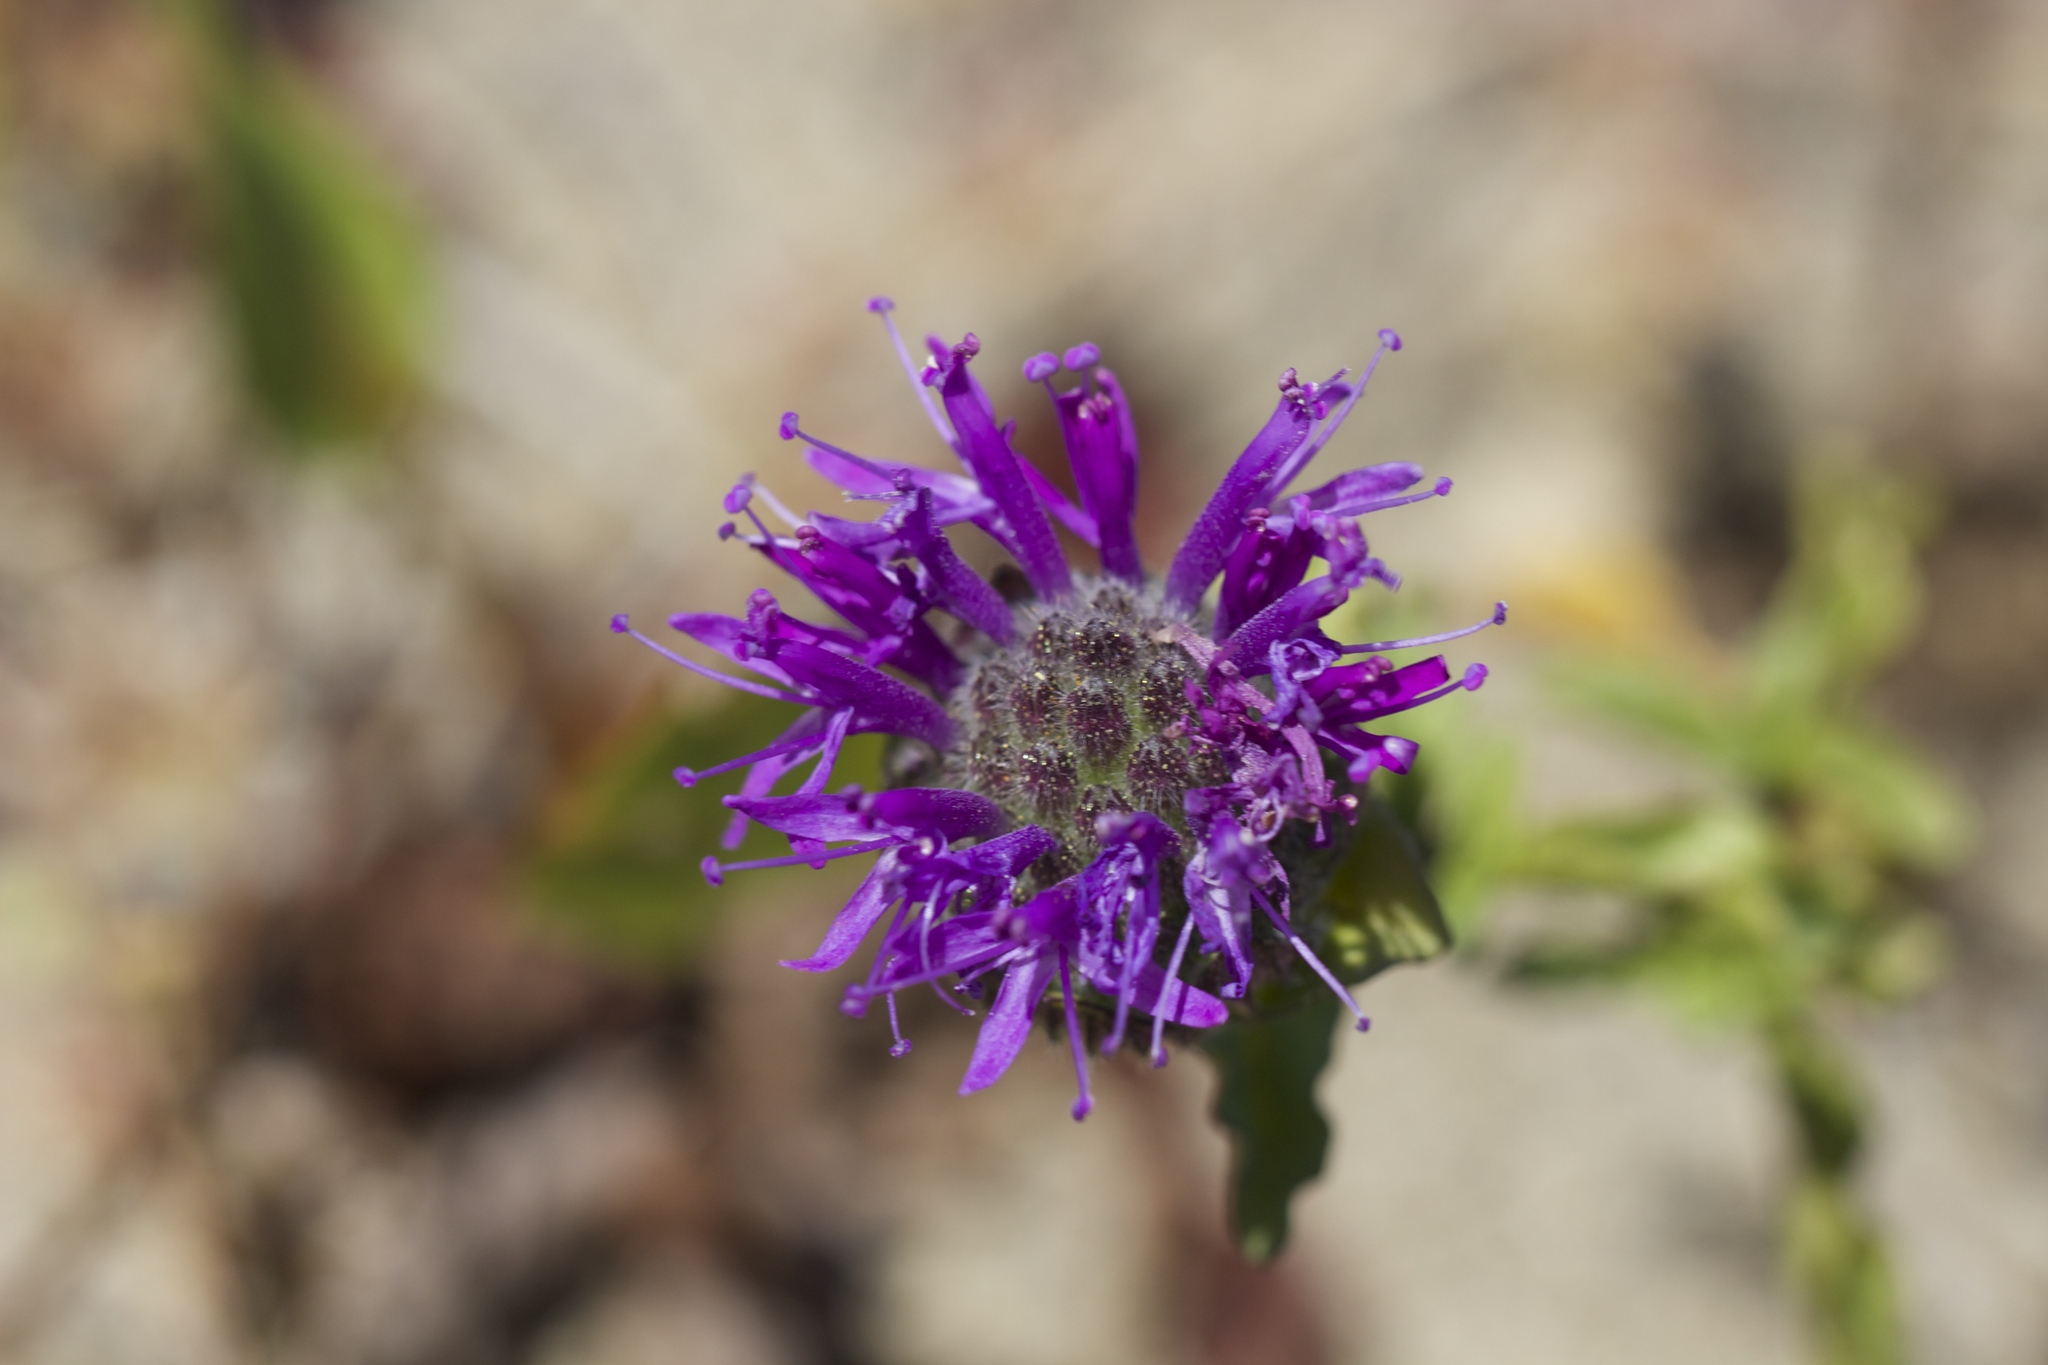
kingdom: Plantae
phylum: Tracheophyta
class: Magnoliopsida
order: Lamiales
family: Lamiaceae
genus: Monardella
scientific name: Monardella sinuata
